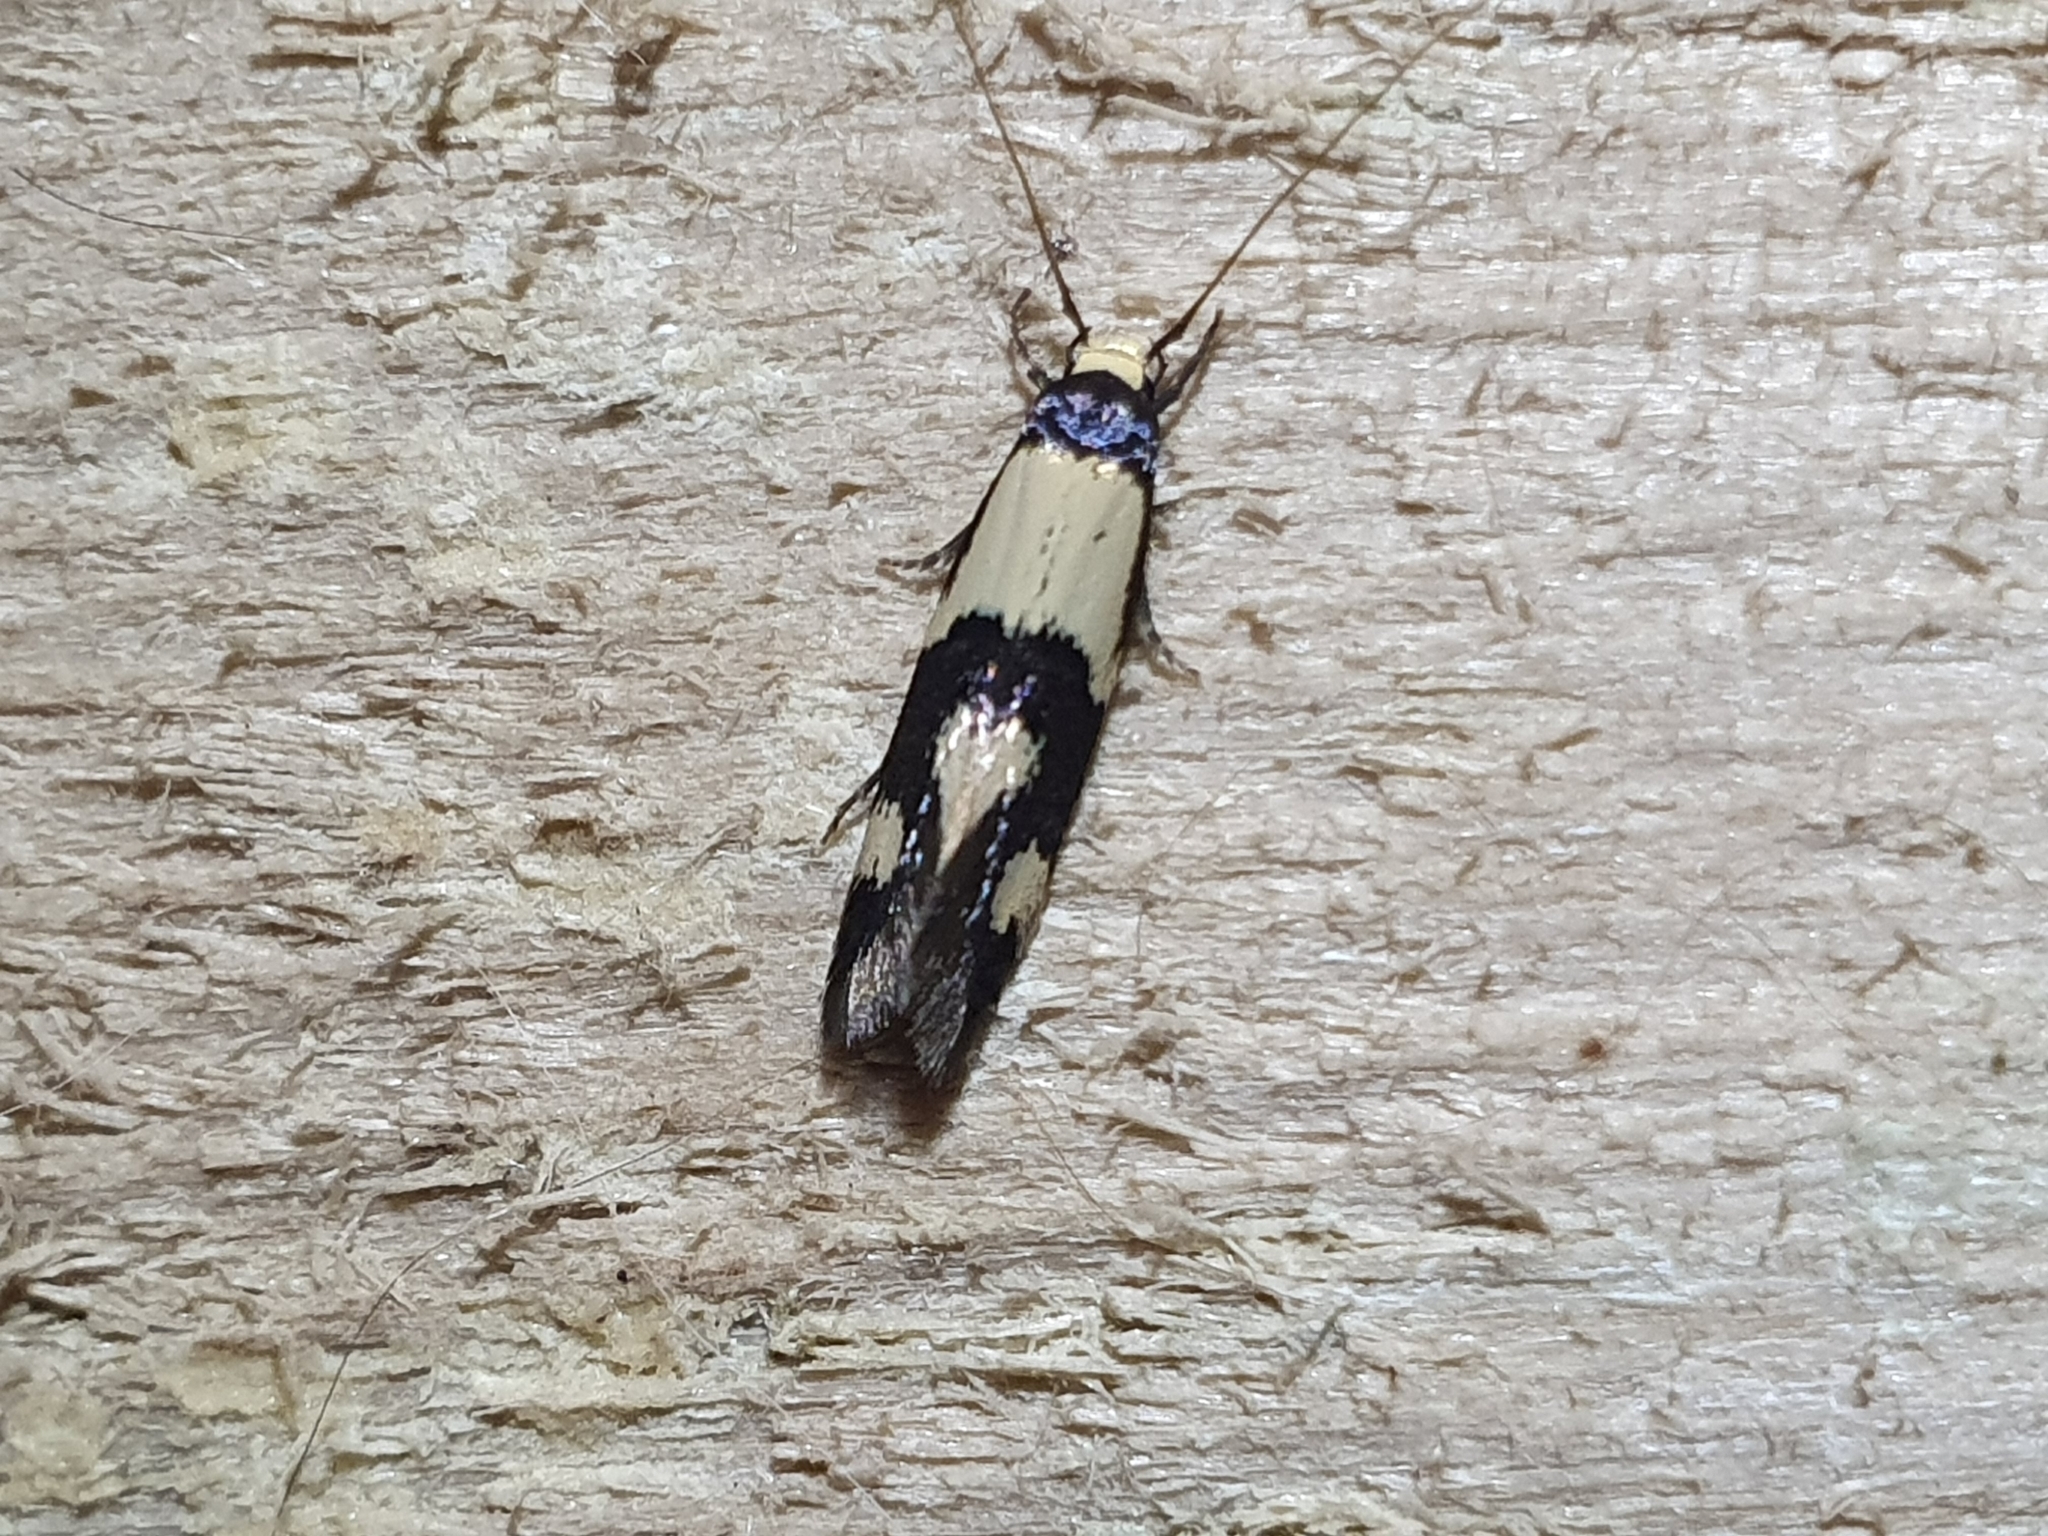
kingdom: Animalia
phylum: Arthropoda
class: Insecta
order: Lepidoptera
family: Tineidae
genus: Opogona
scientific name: Opogona comptella
